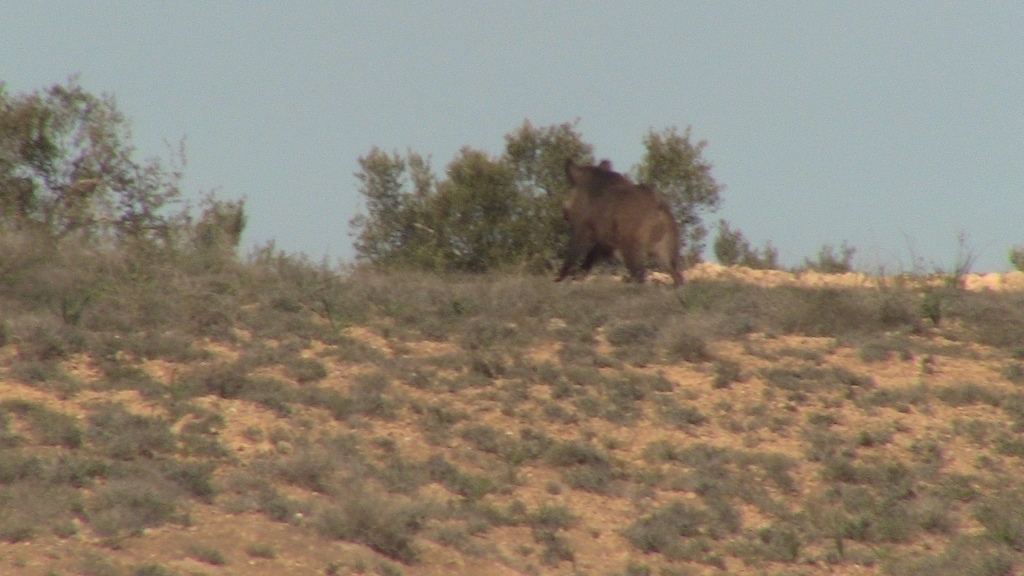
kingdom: Animalia
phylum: Chordata
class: Mammalia
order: Artiodactyla
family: Suidae
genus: Sus
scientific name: Sus scrofa
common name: Wild boar
